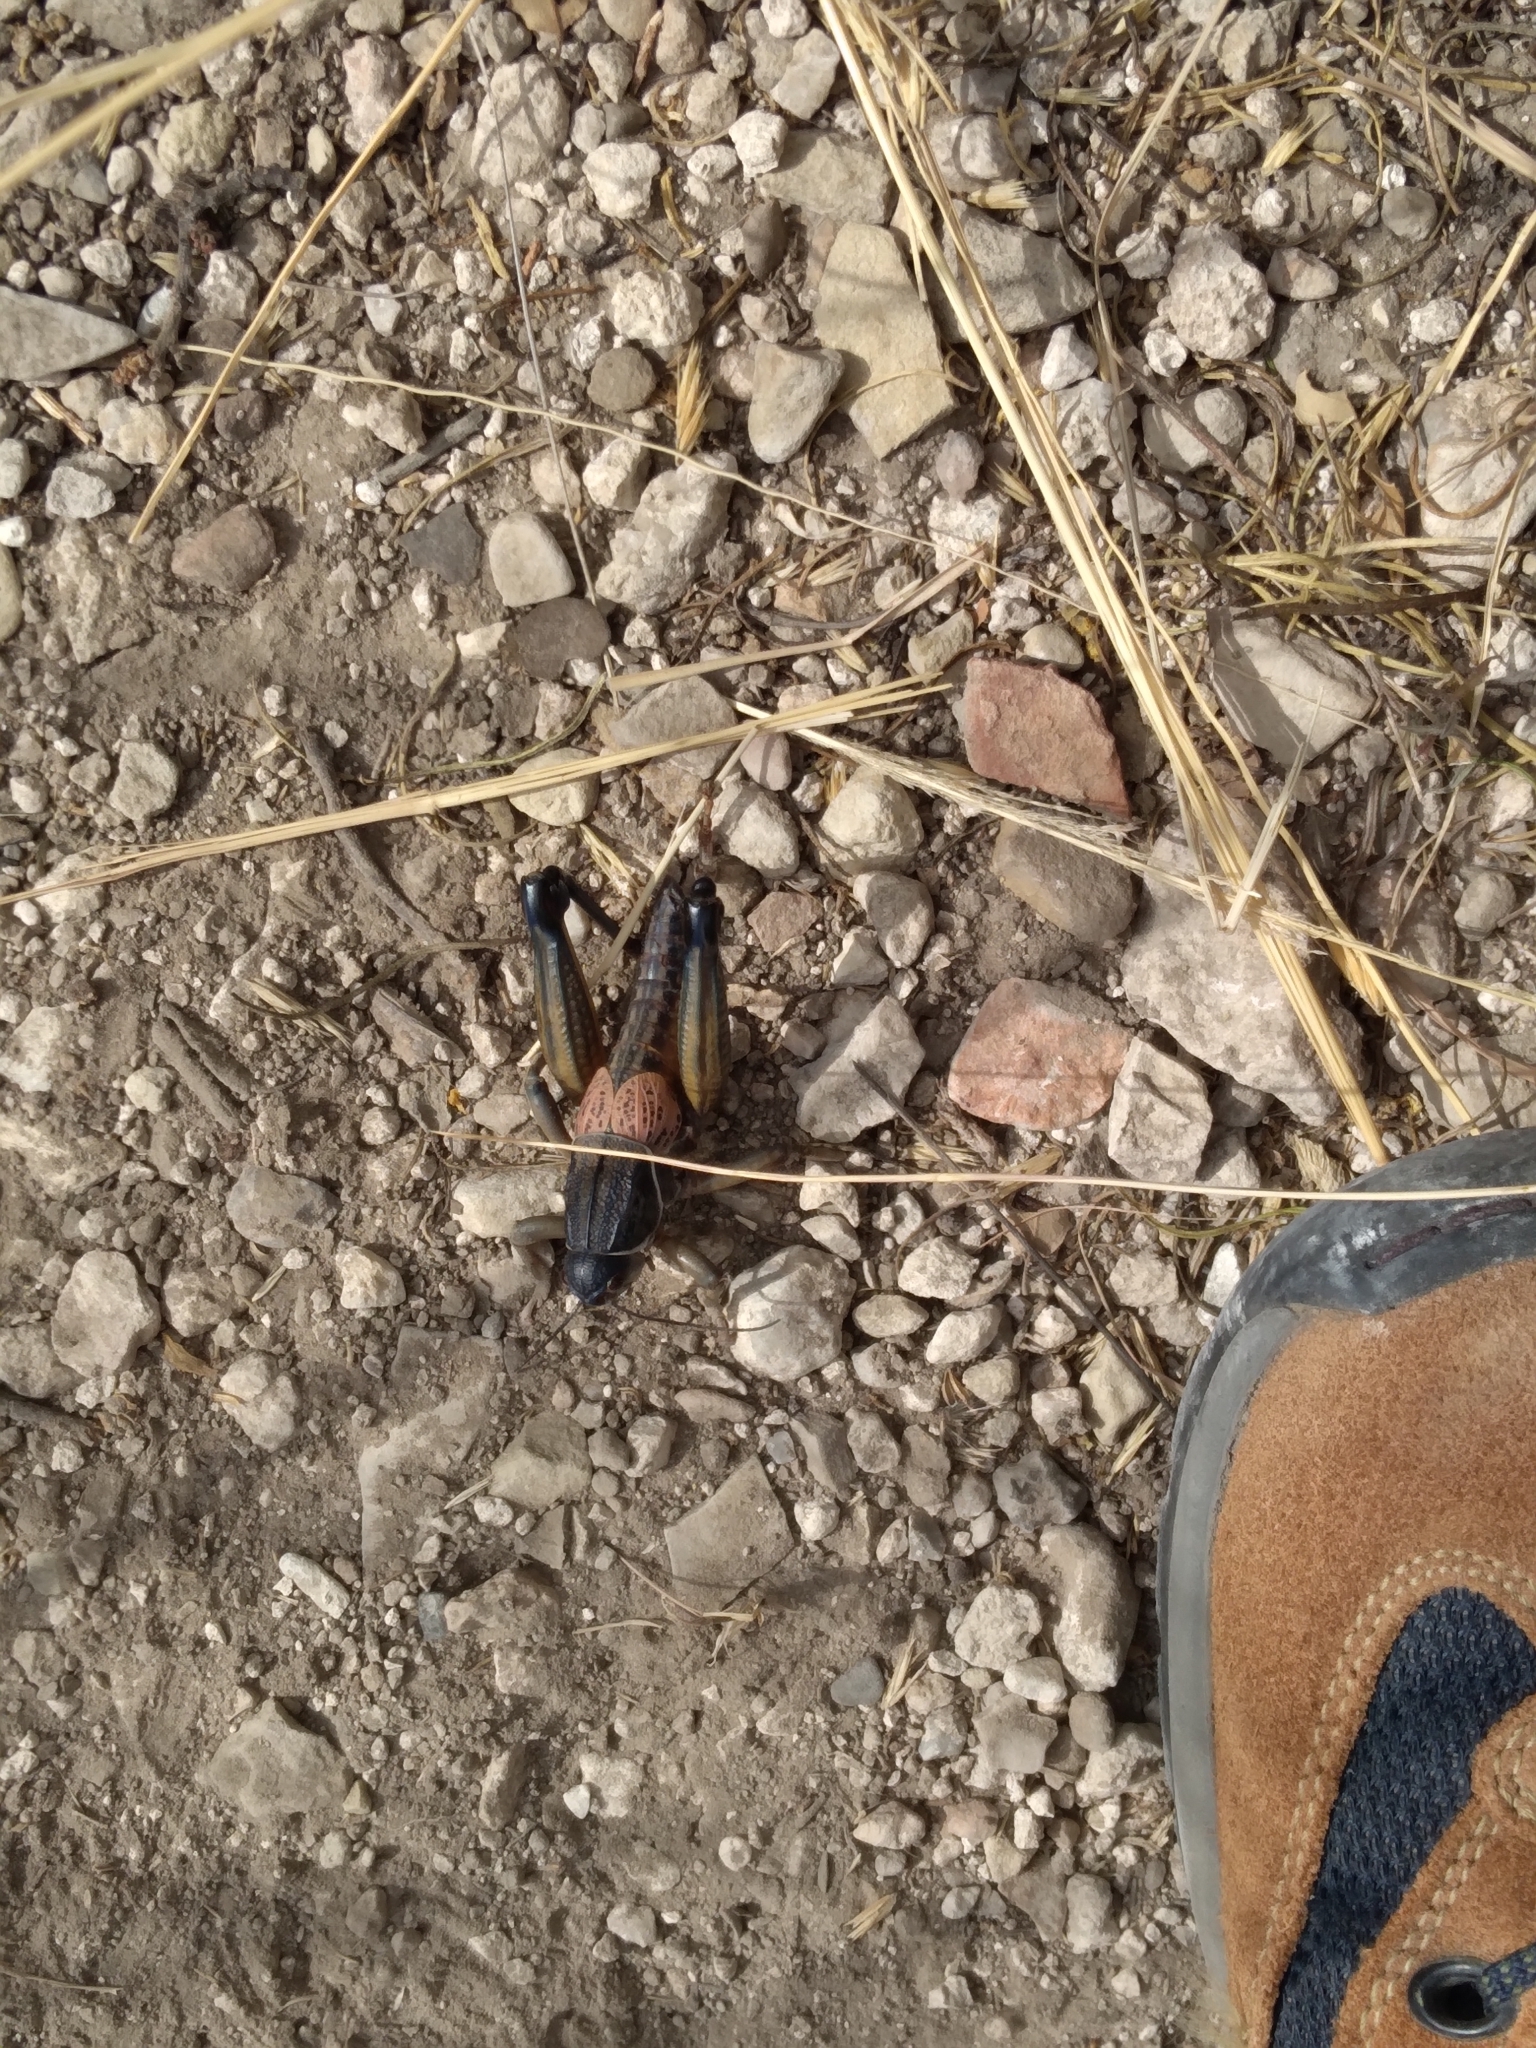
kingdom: Animalia
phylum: Arthropoda
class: Insecta
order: Orthoptera
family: Romaleidae
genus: Brachystola
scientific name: Brachystola magna
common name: Plains lubber grasshopper
